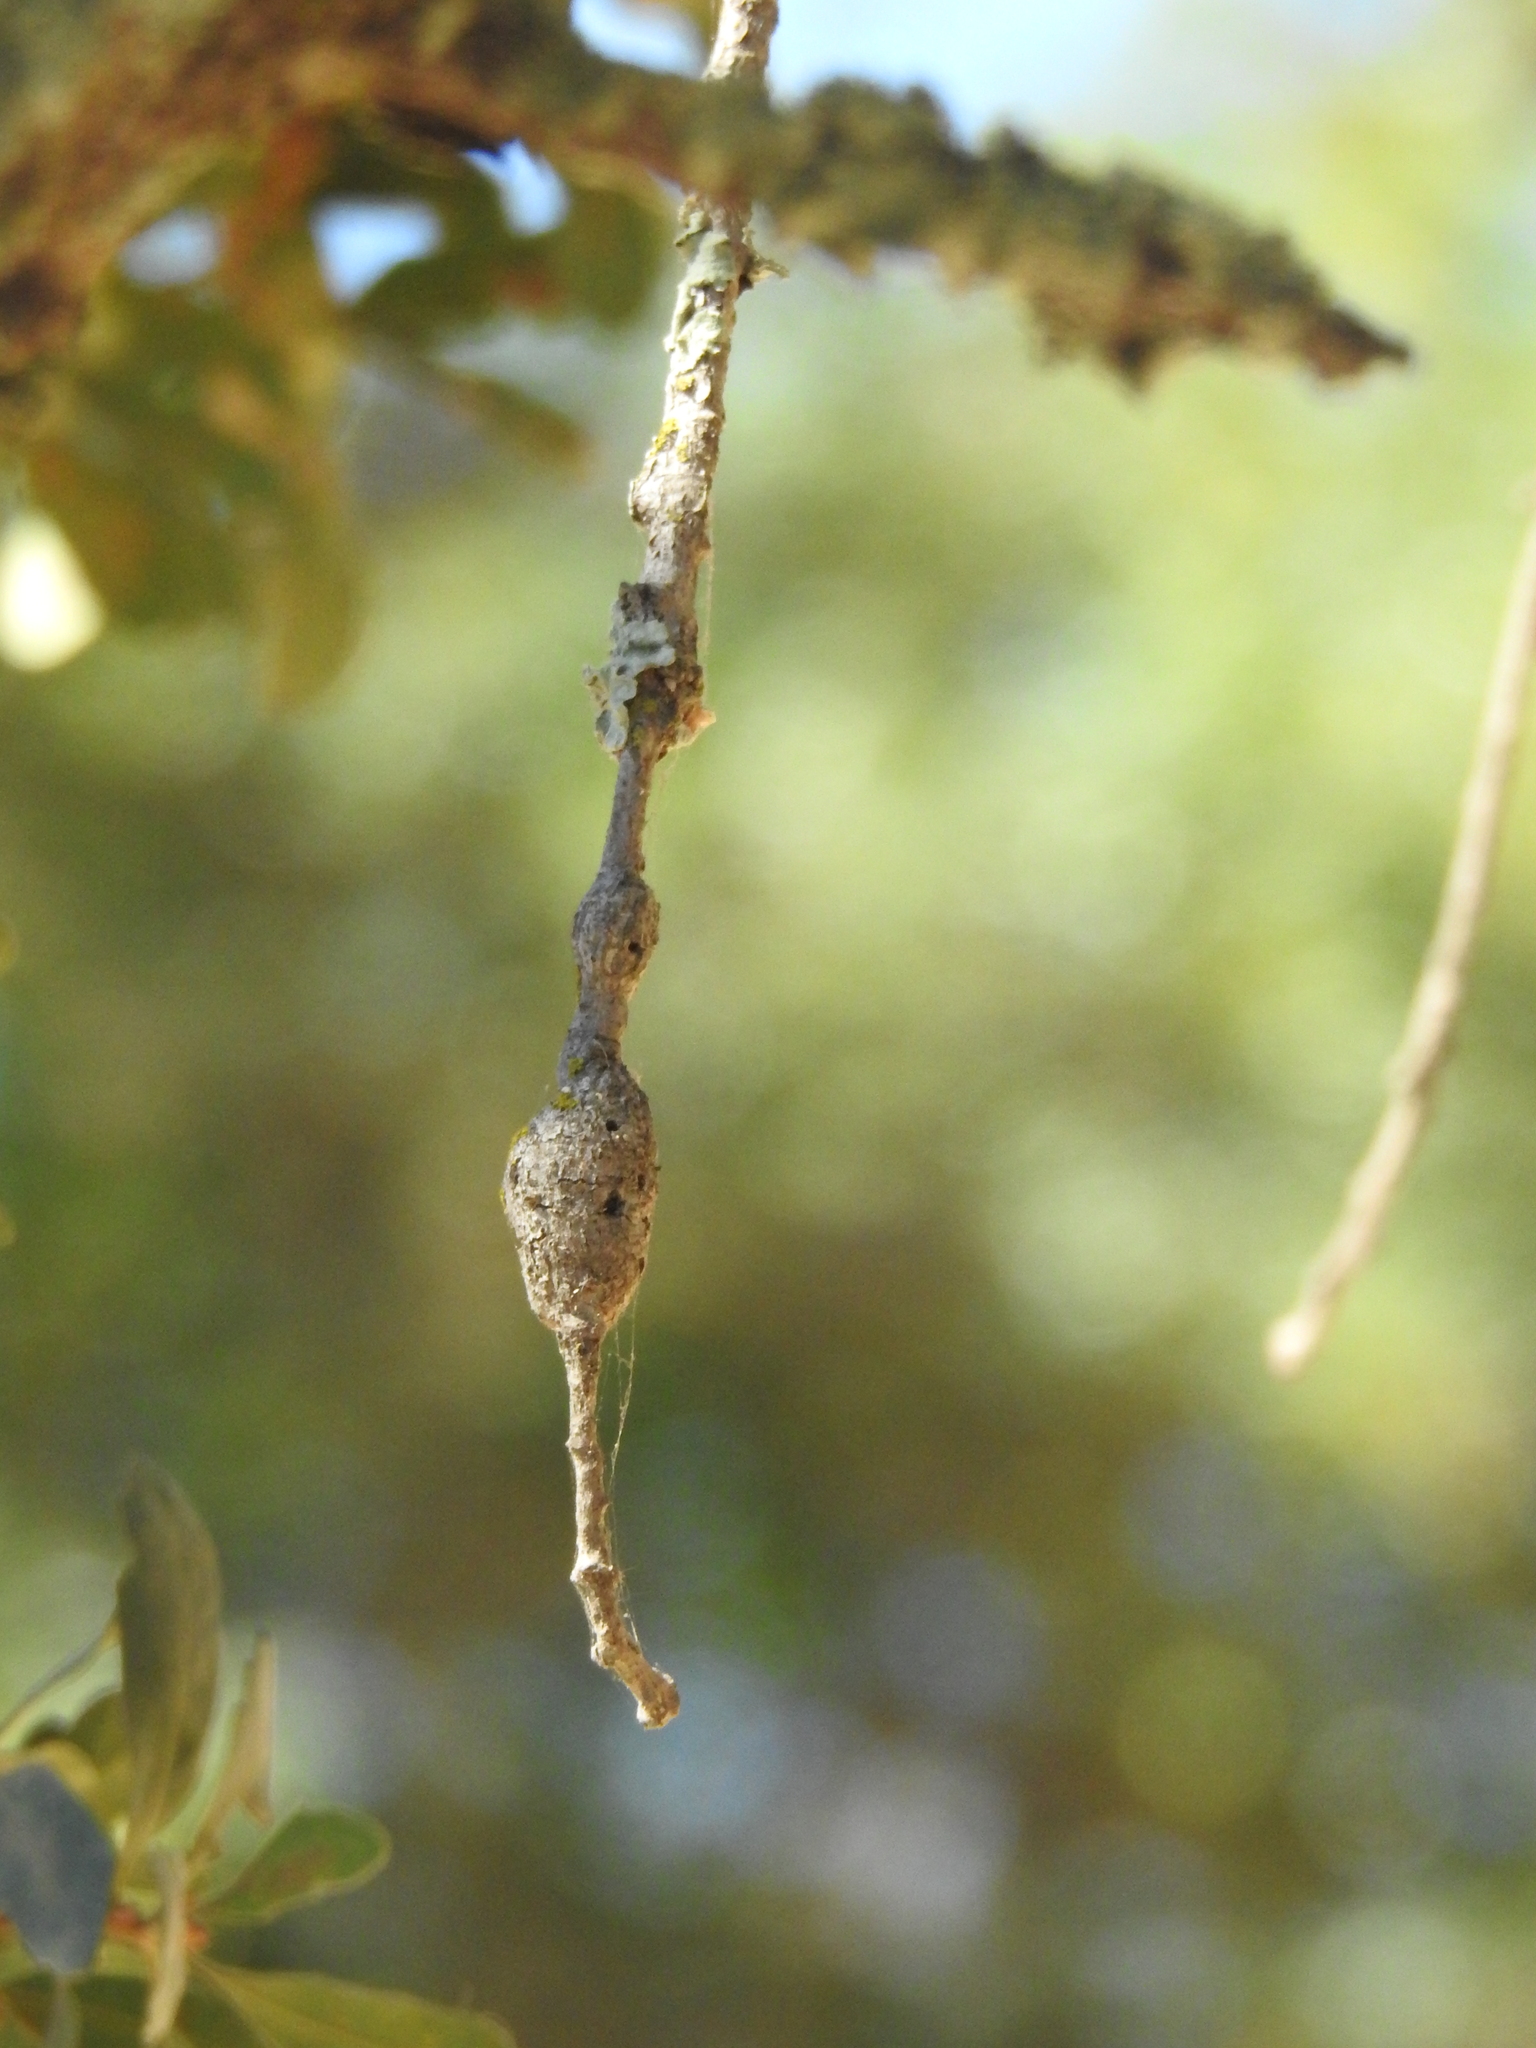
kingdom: Animalia
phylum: Arthropoda
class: Insecta
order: Hymenoptera
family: Cynipidae
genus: Andricus
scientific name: Andricus
